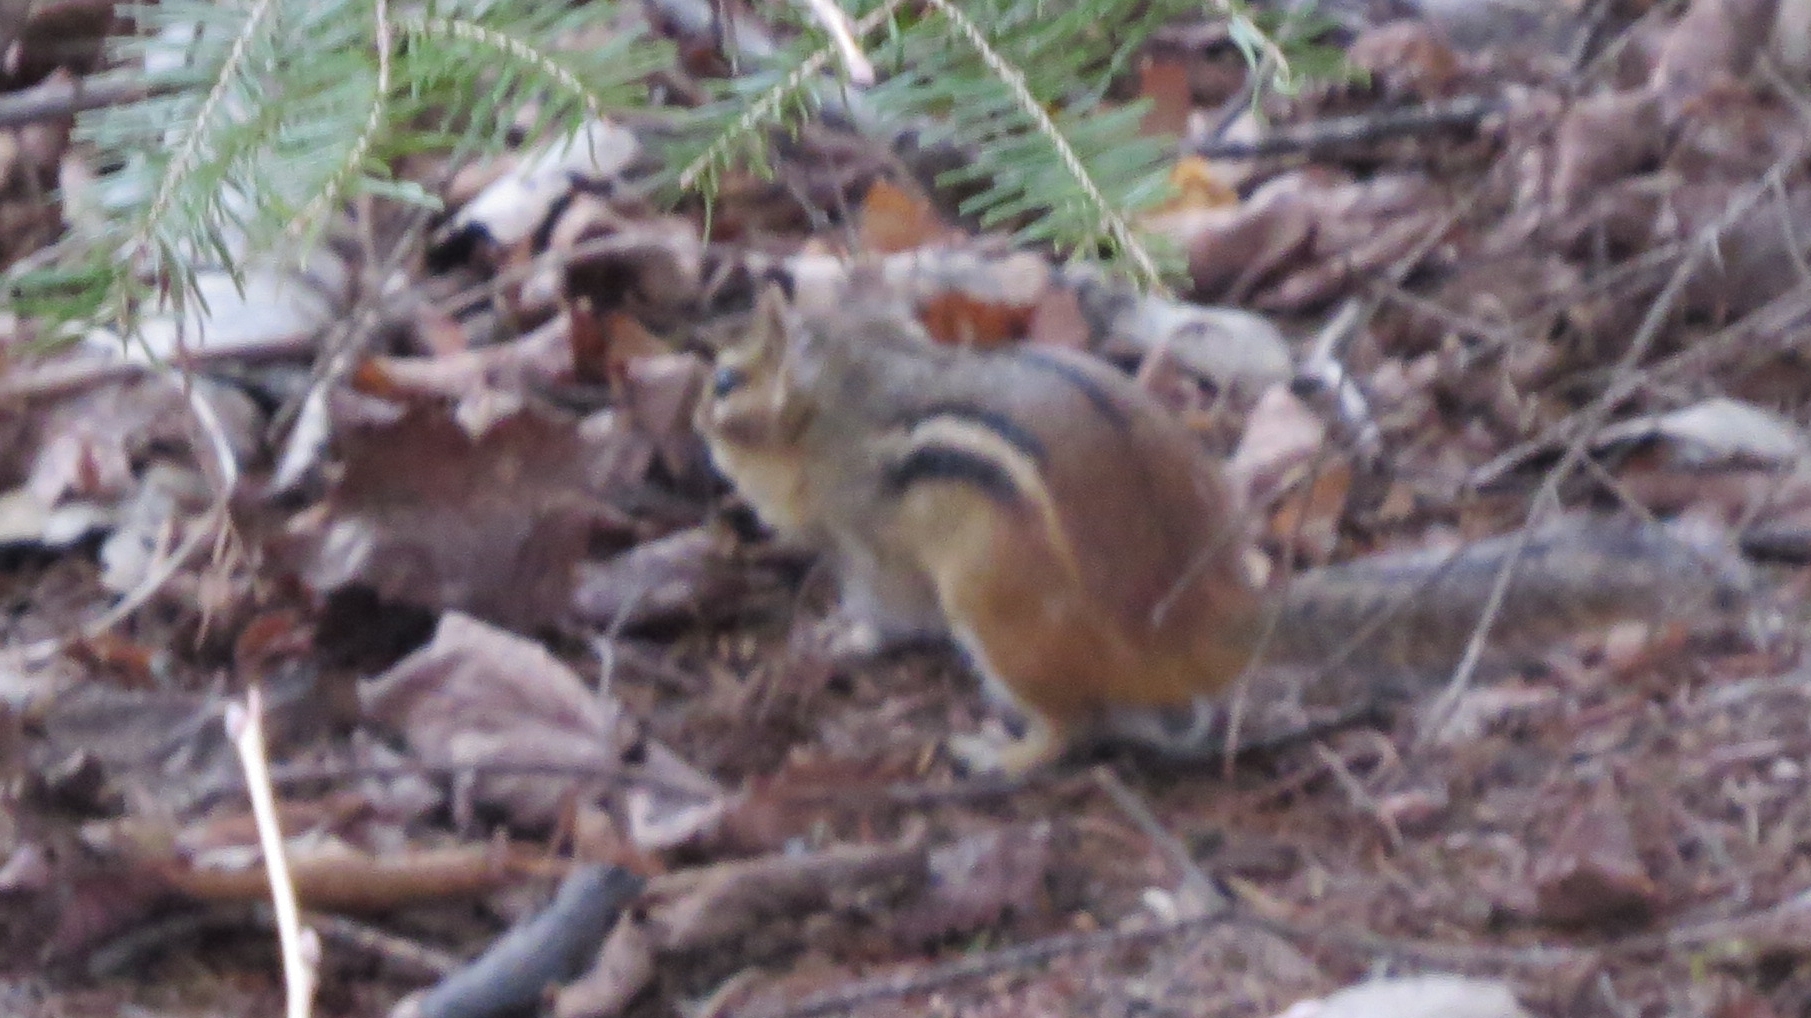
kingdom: Animalia
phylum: Chordata
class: Mammalia
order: Rodentia
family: Sciuridae
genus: Tamias
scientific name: Tamias striatus
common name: Eastern chipmunk
